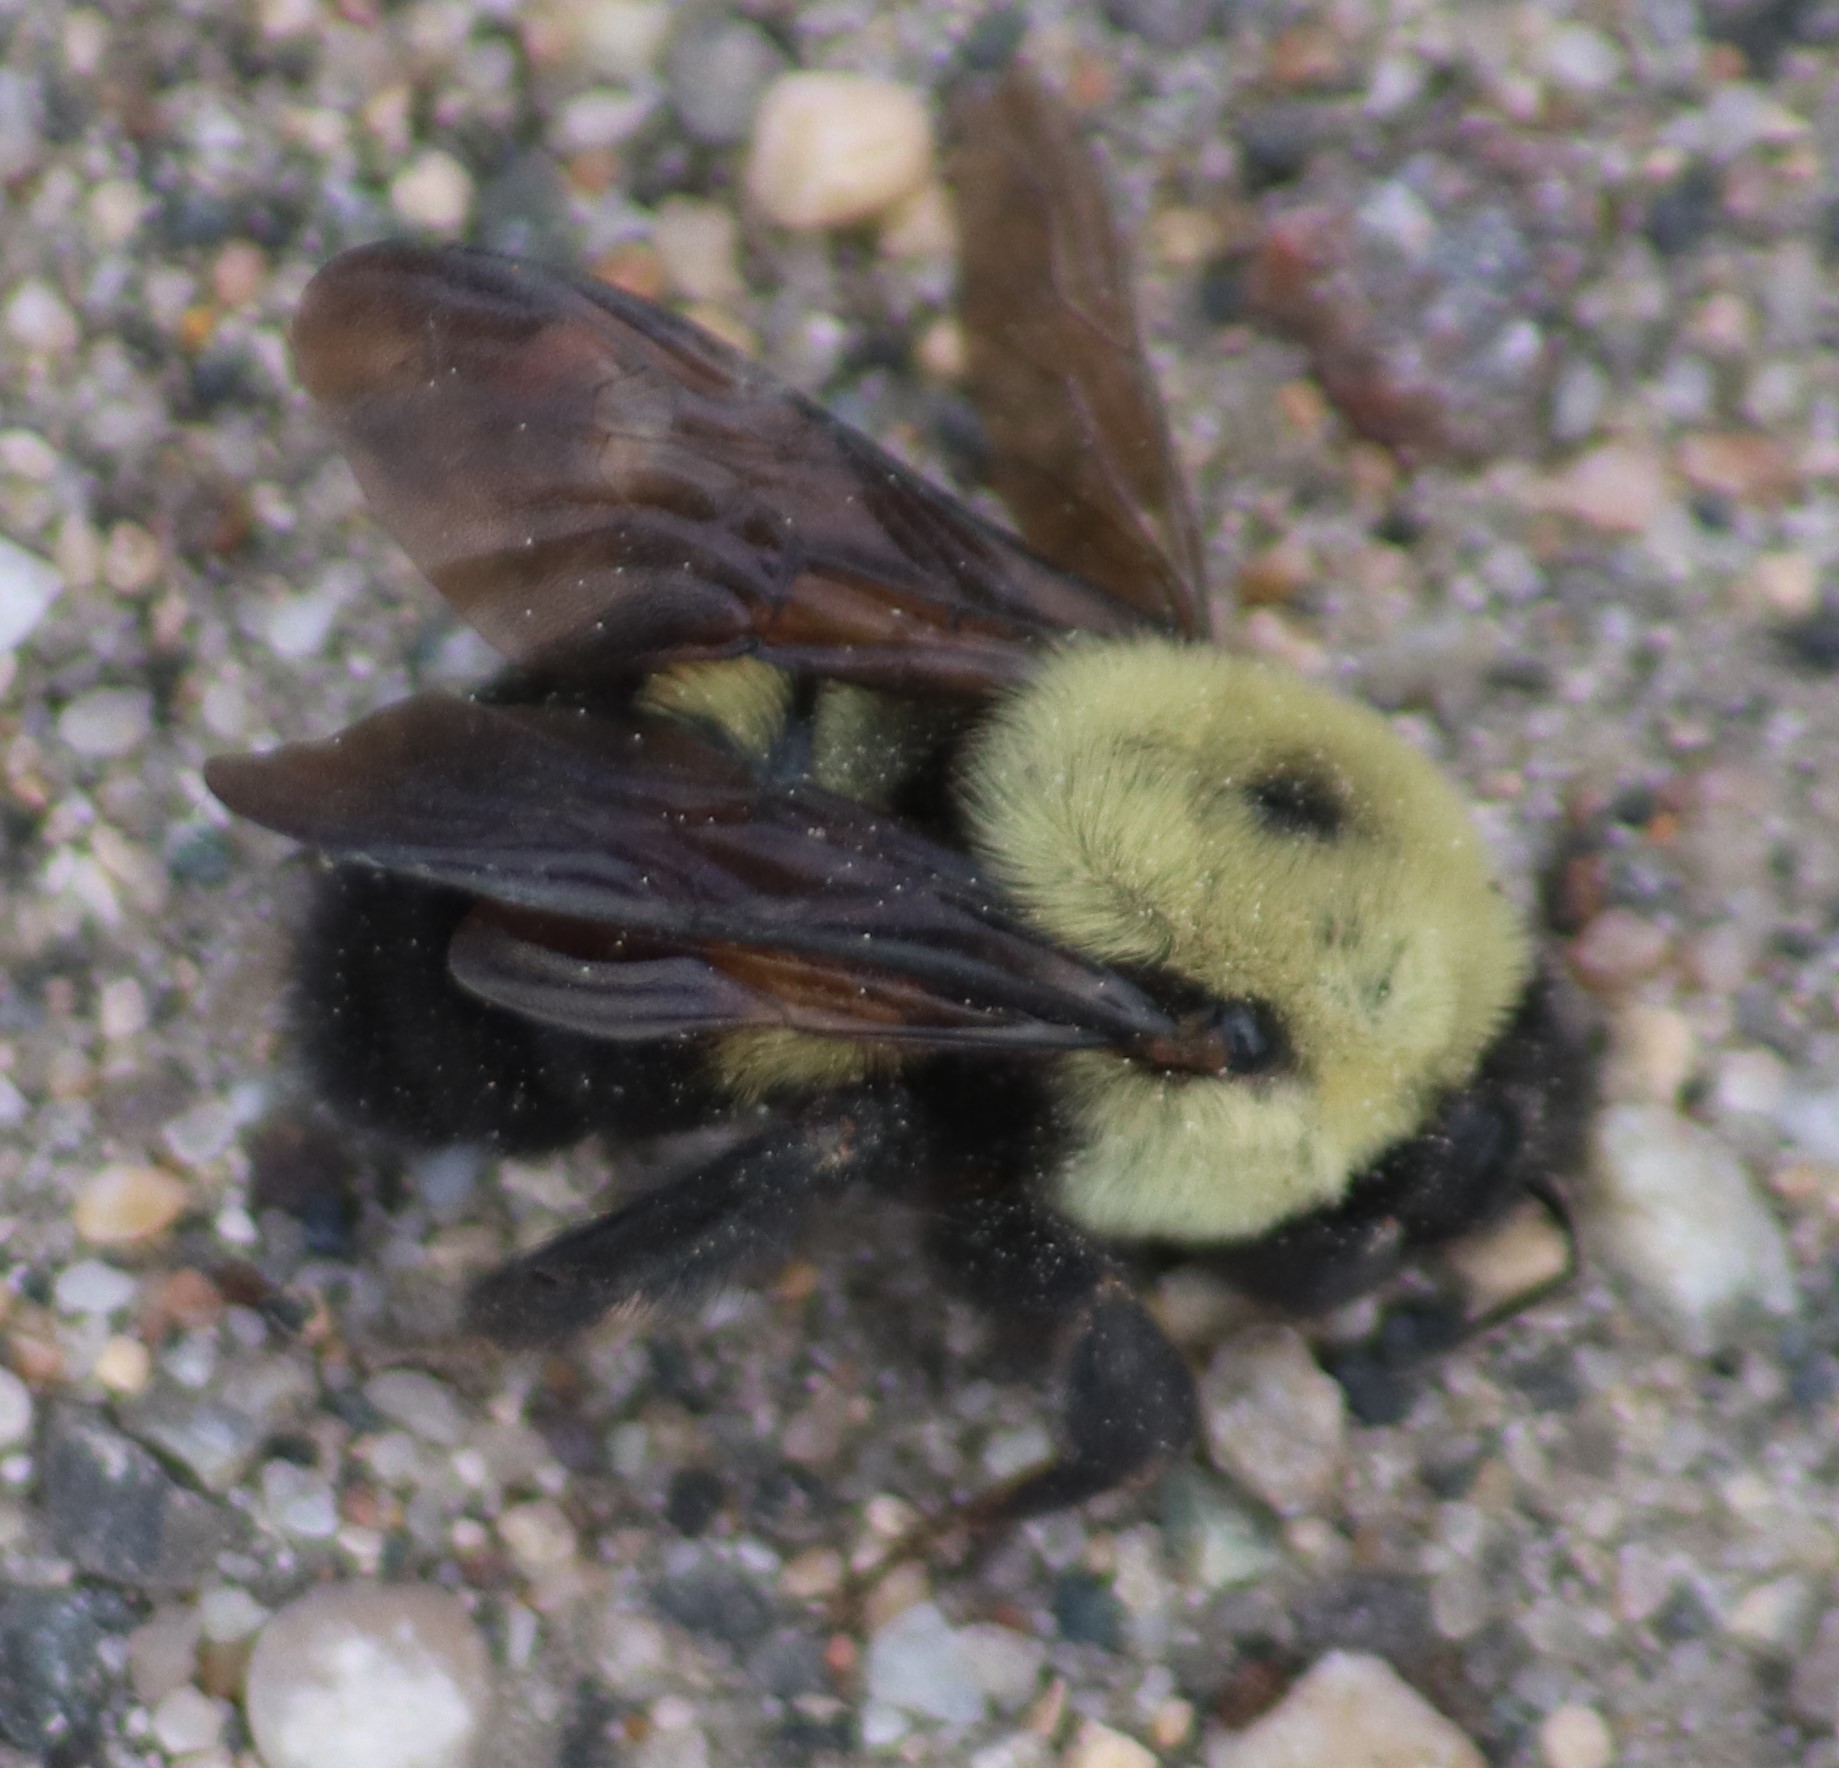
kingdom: Animalia
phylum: Arthropoda
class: Insecta
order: Hymenoptera
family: Apidae
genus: Bombus
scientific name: Bombus griseocollis
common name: Brown-belted bumble bee
